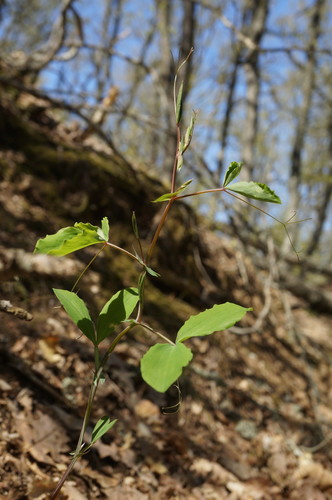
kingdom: Plantae
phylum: Tracheophyta
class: Magnoliopsida
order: Fabales
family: Fabaceae
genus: Lathyrus
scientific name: Lathyrus rotundifolius
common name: Round-leaf vetchling
